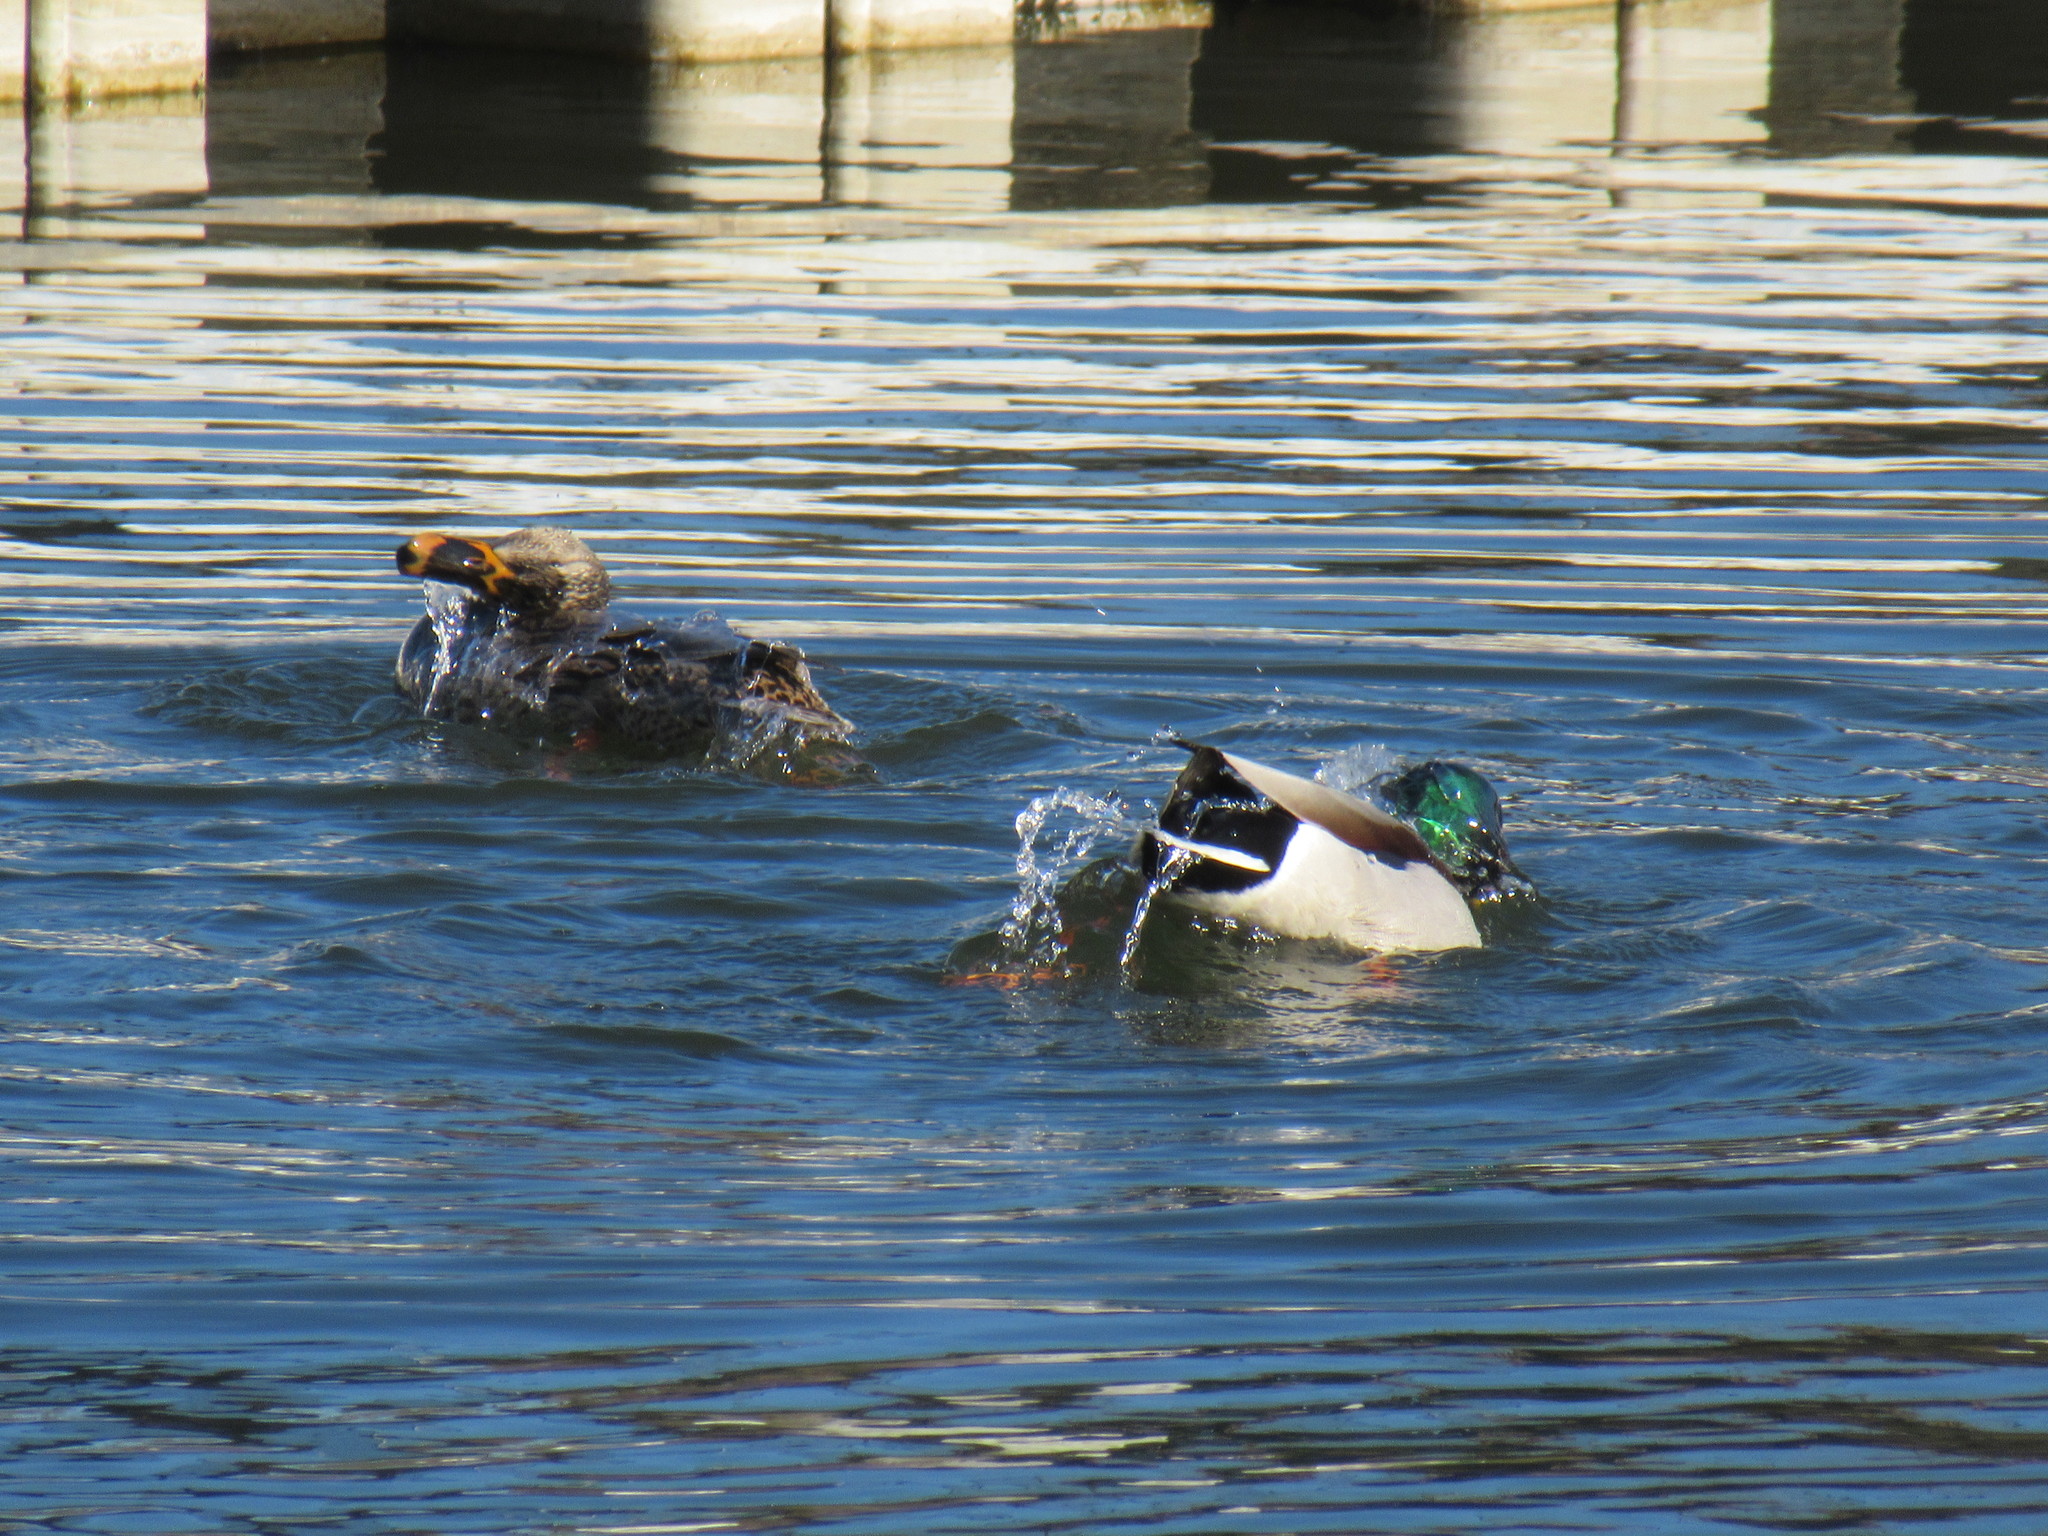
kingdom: Animalia
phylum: Chordata
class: Aves
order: Anseriformes
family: Anatidae
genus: Anas
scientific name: Anas platyrhynchos
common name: Mallard
